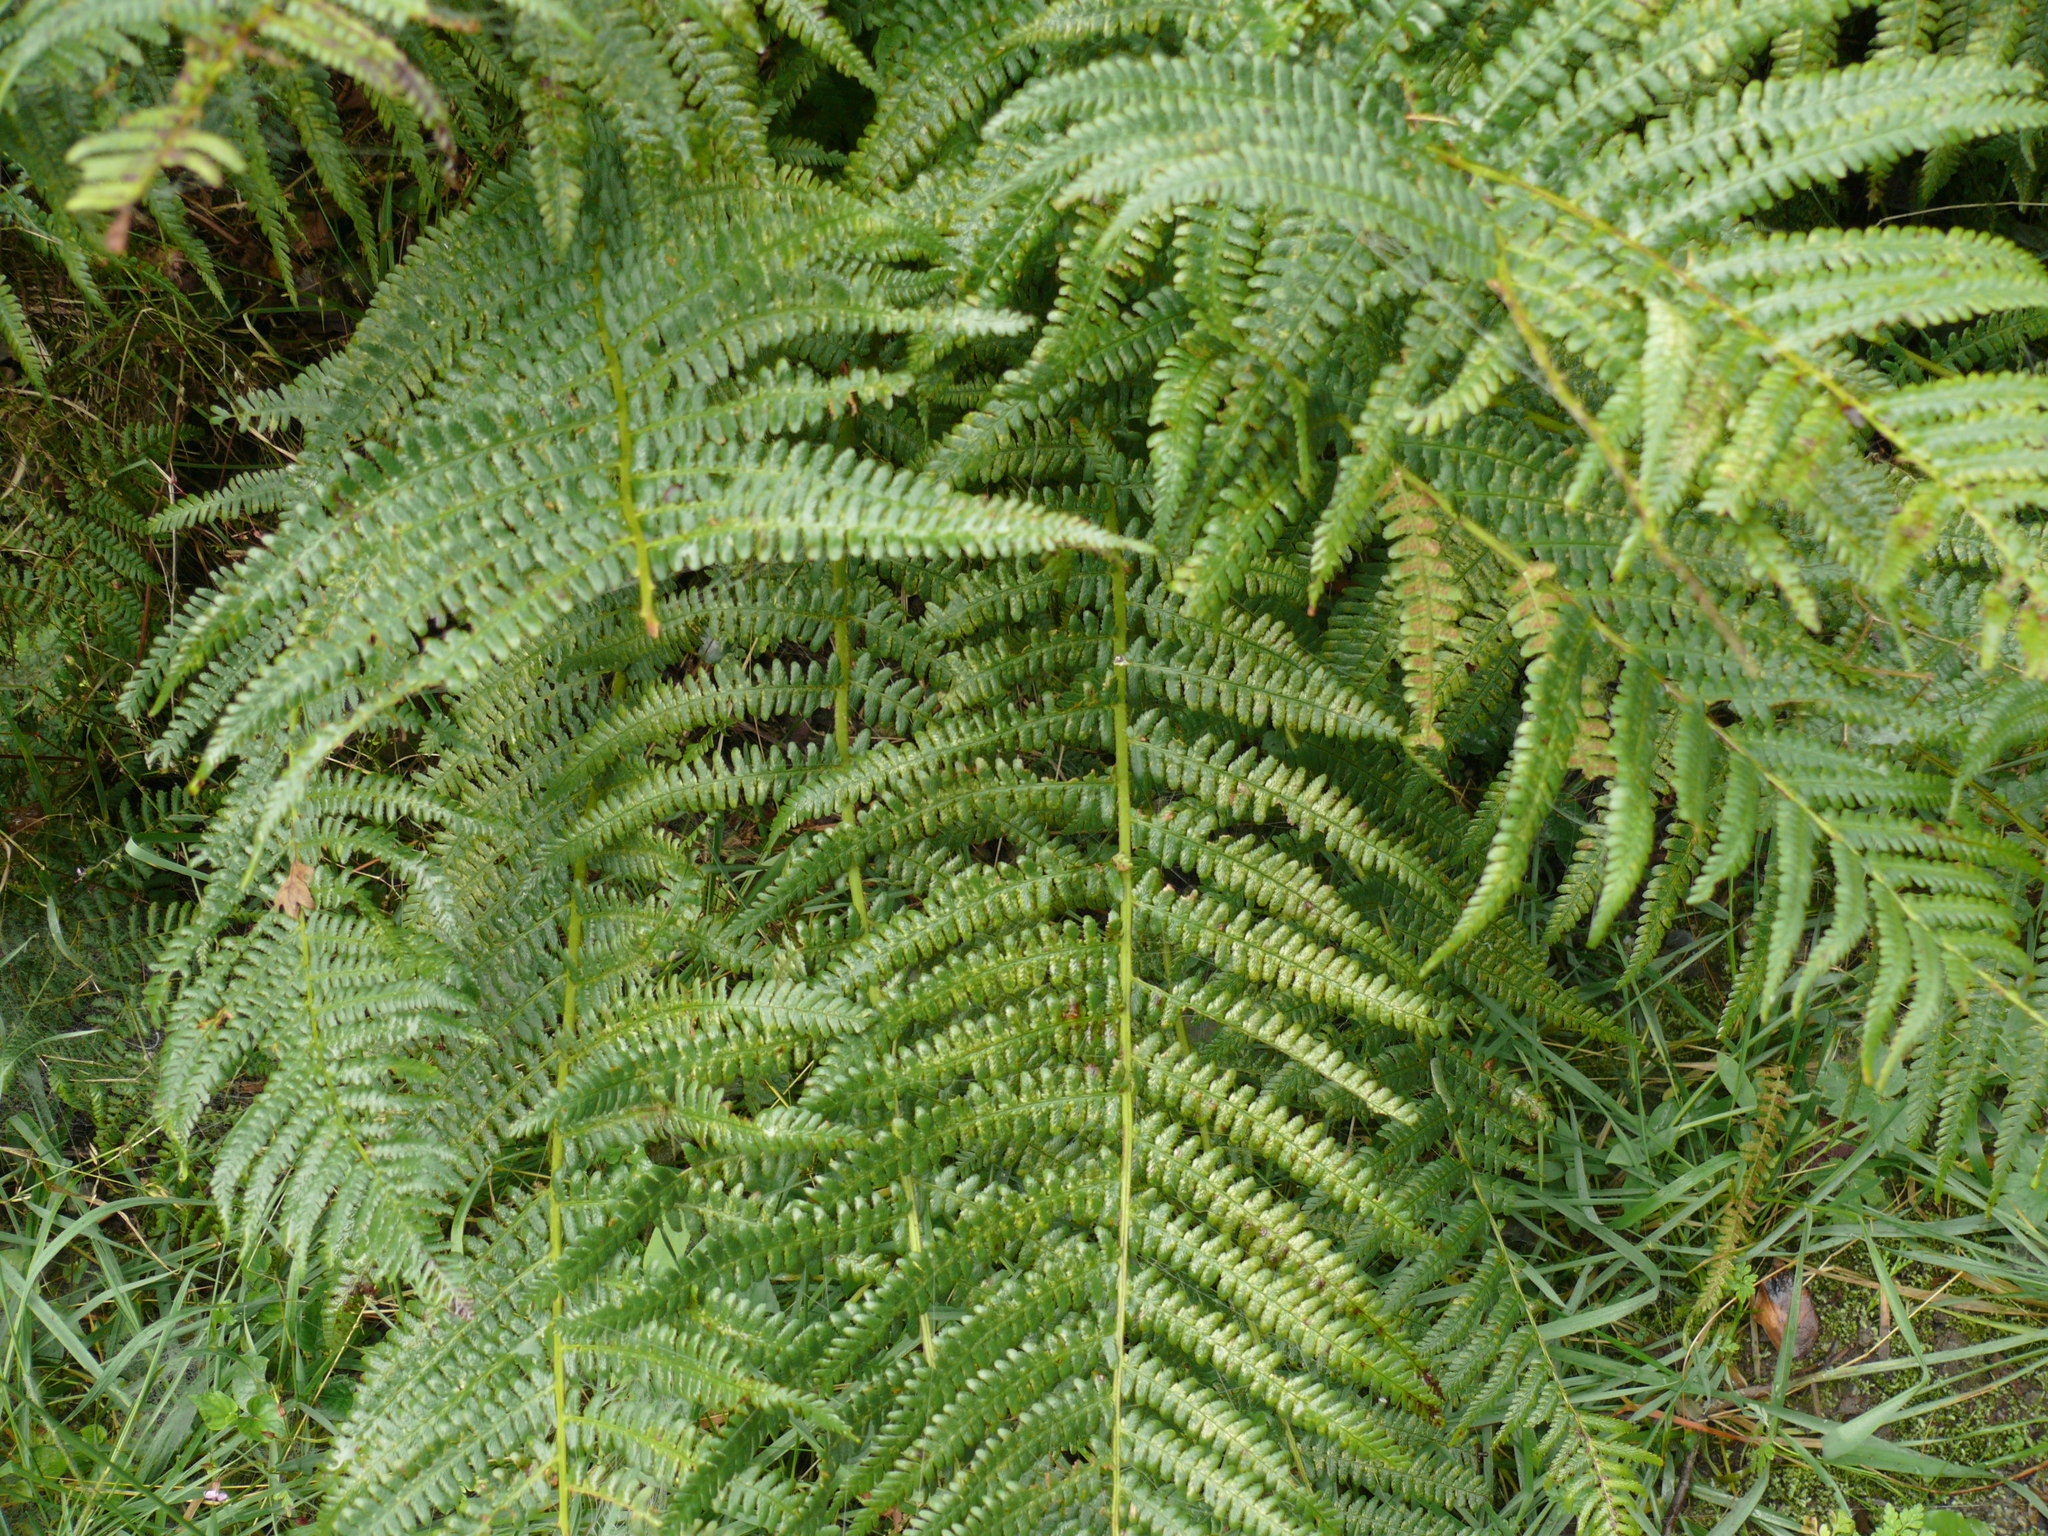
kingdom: Plantae
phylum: Tracheophyta
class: Polypodiopsida
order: Polypodiales
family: Athyriaceae
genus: Athyrium
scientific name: Athyrium filix-femina
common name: Lady fern
